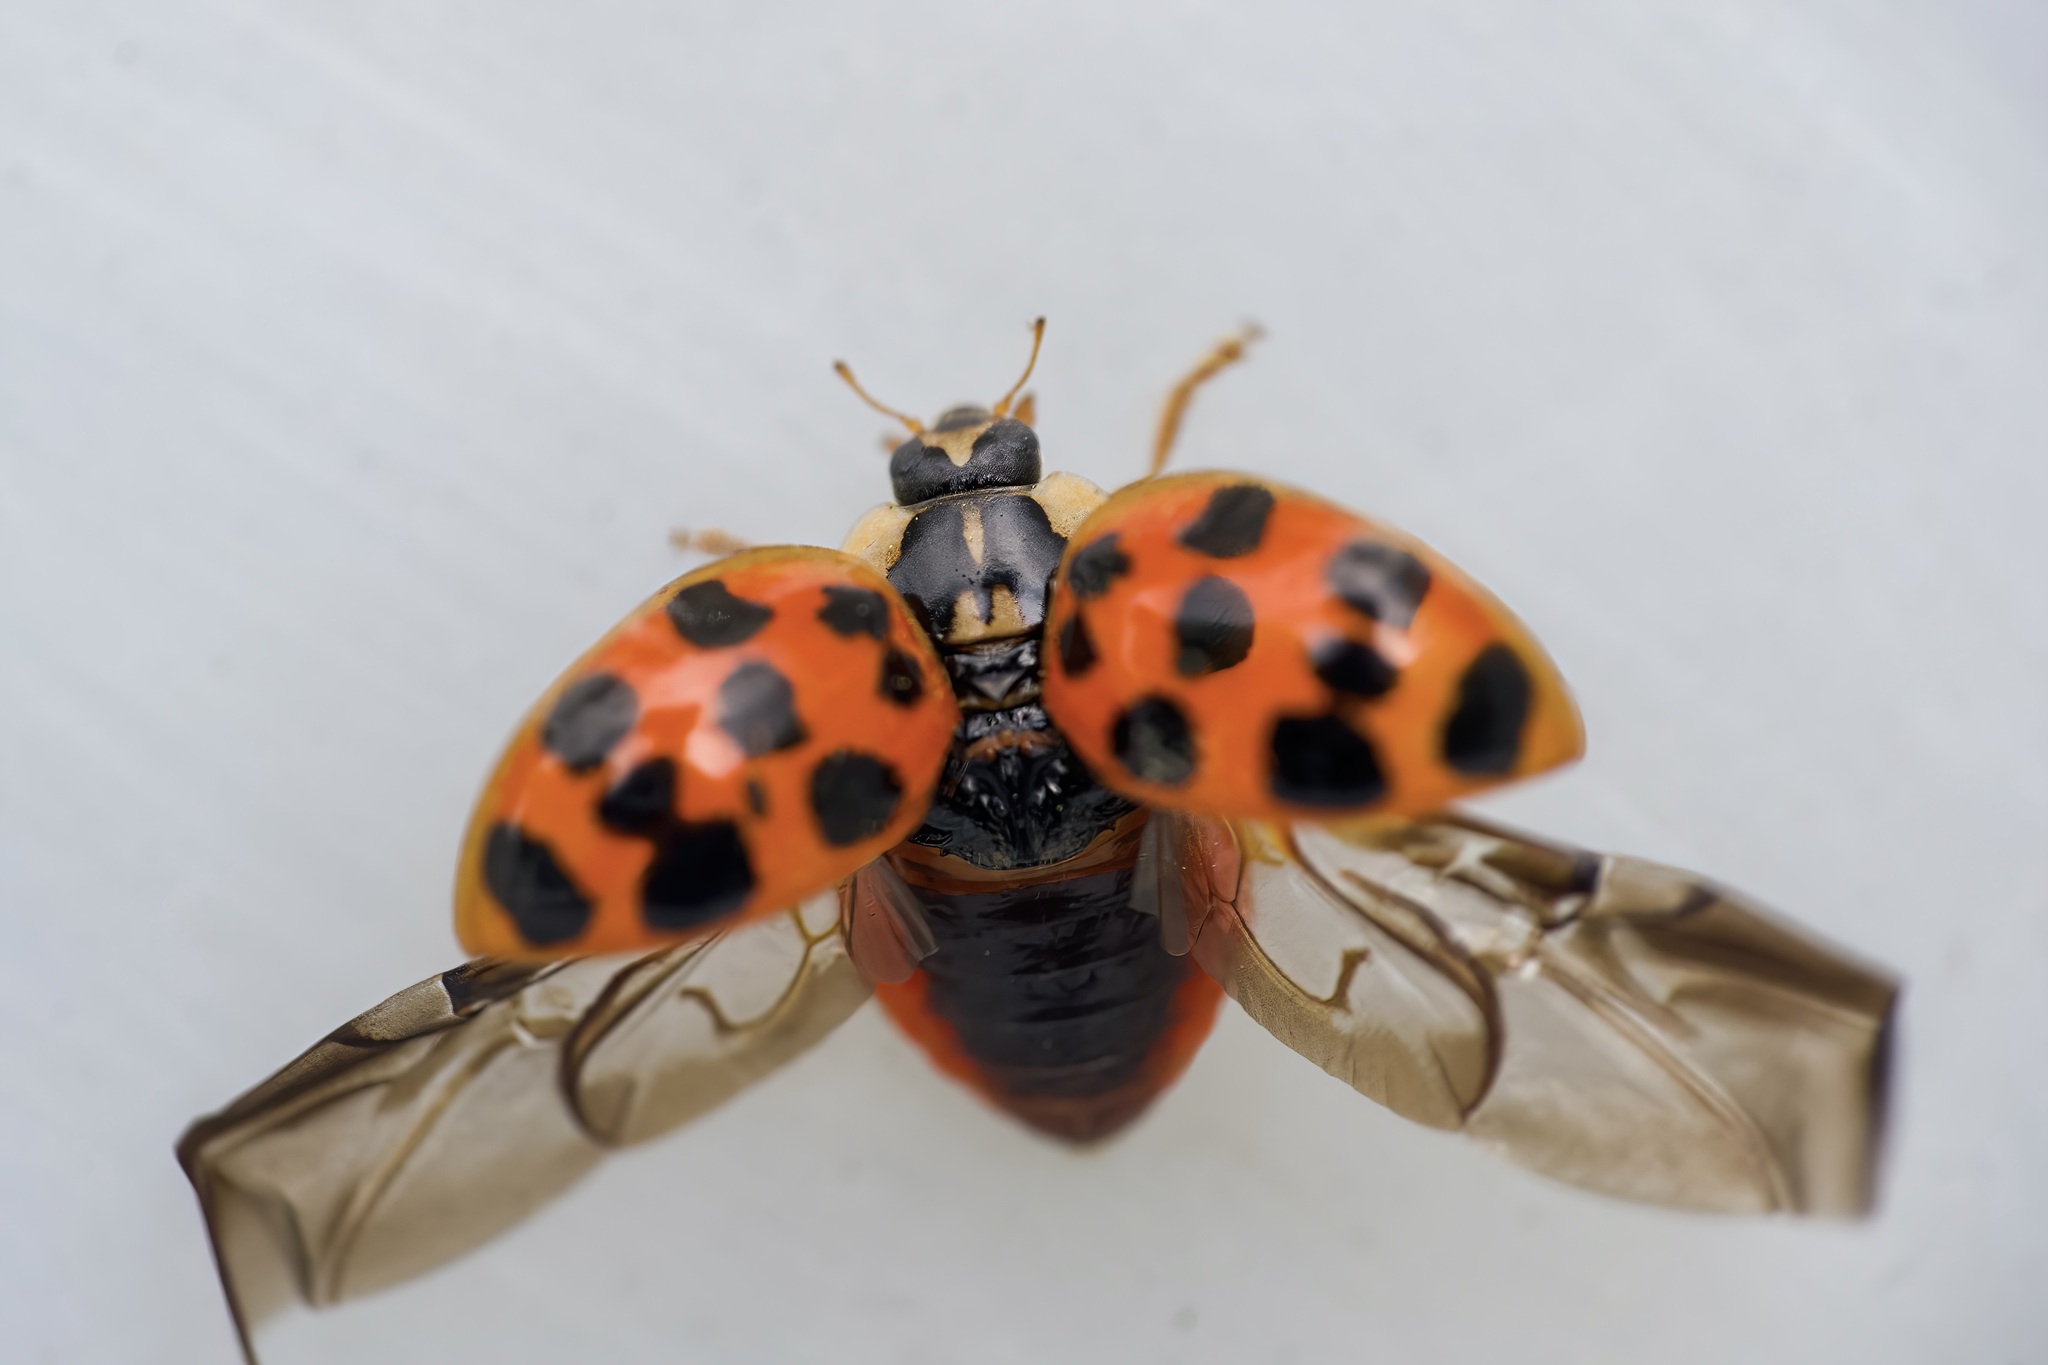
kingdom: Animalia
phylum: Arthropoda
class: Insecta
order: Coleoptera
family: Coccinellidae
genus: Harmonia
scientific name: Harmonia axyridis
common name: Harlequin ladybird
